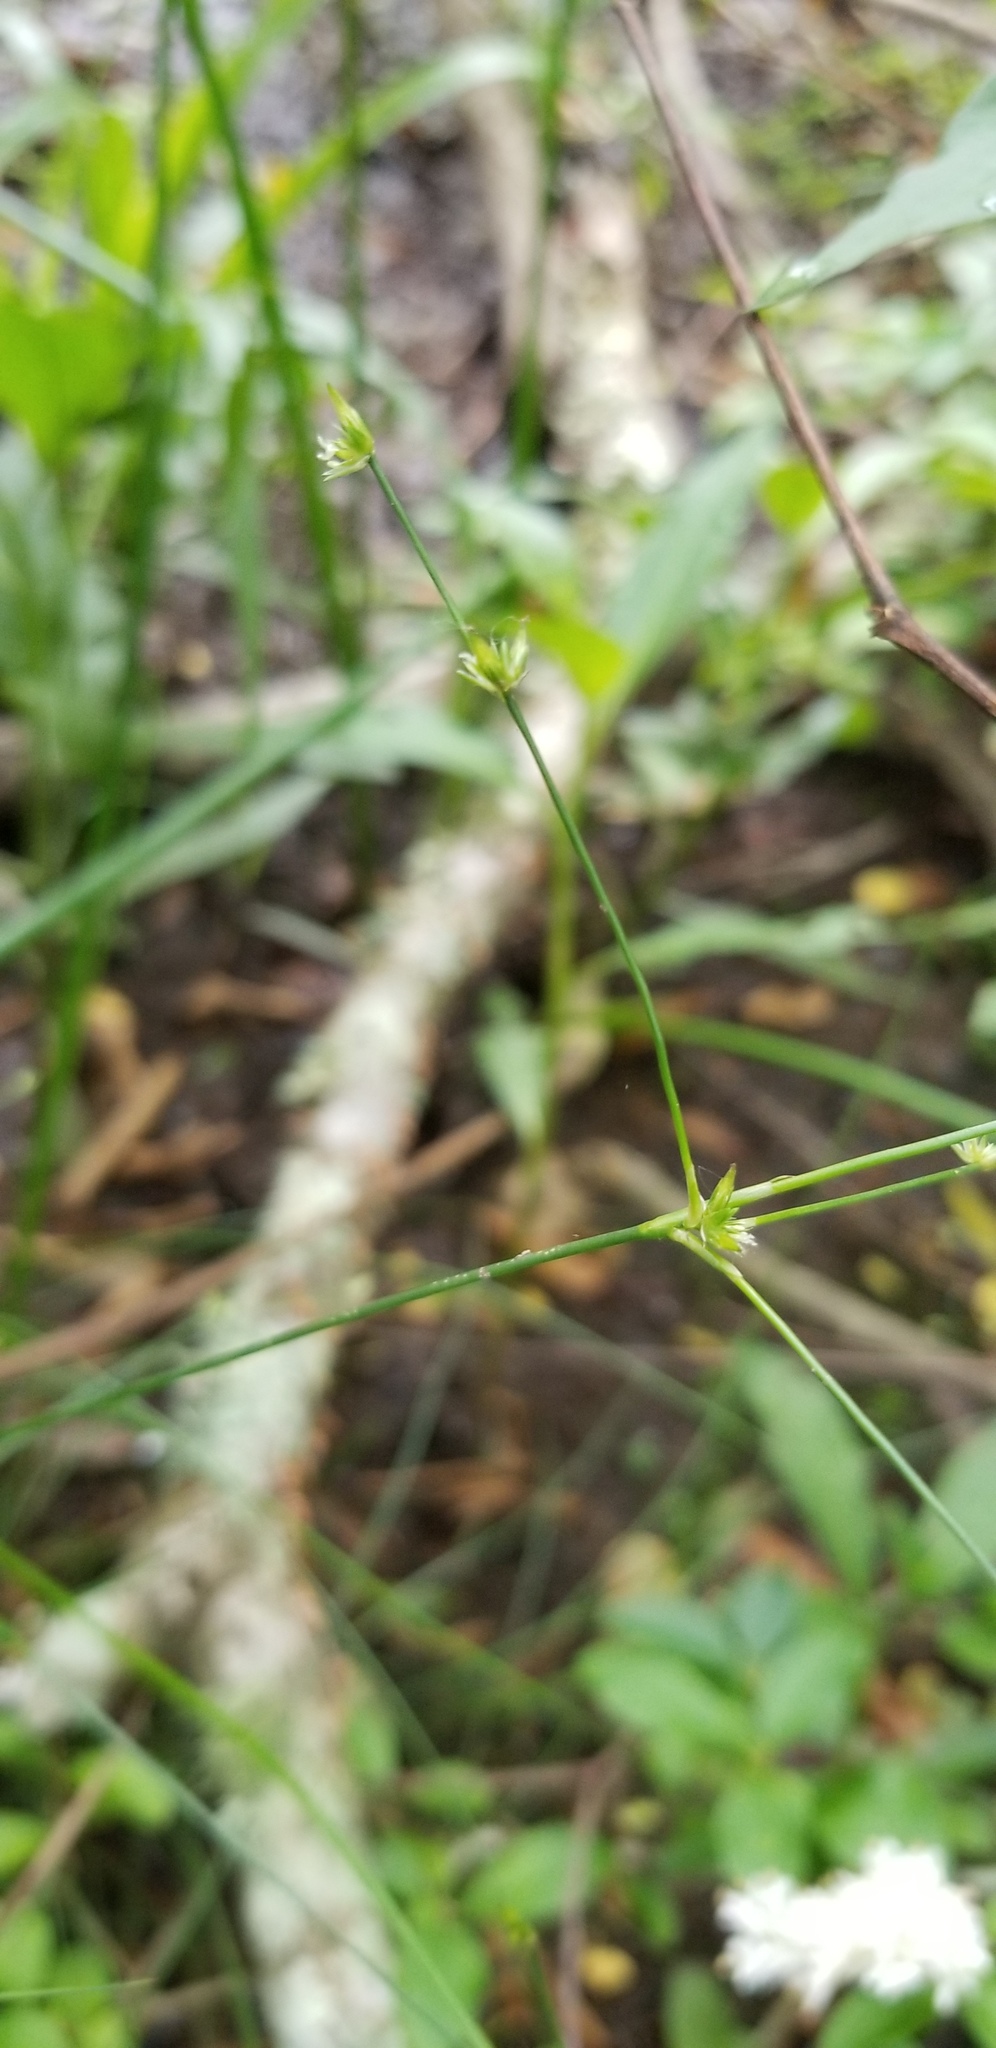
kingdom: Plantae
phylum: Tracheophyta
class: Liliopsida
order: Poales
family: Juncaceae
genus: Juncus
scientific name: Juncus diffusissimus
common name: Slimpod rush
